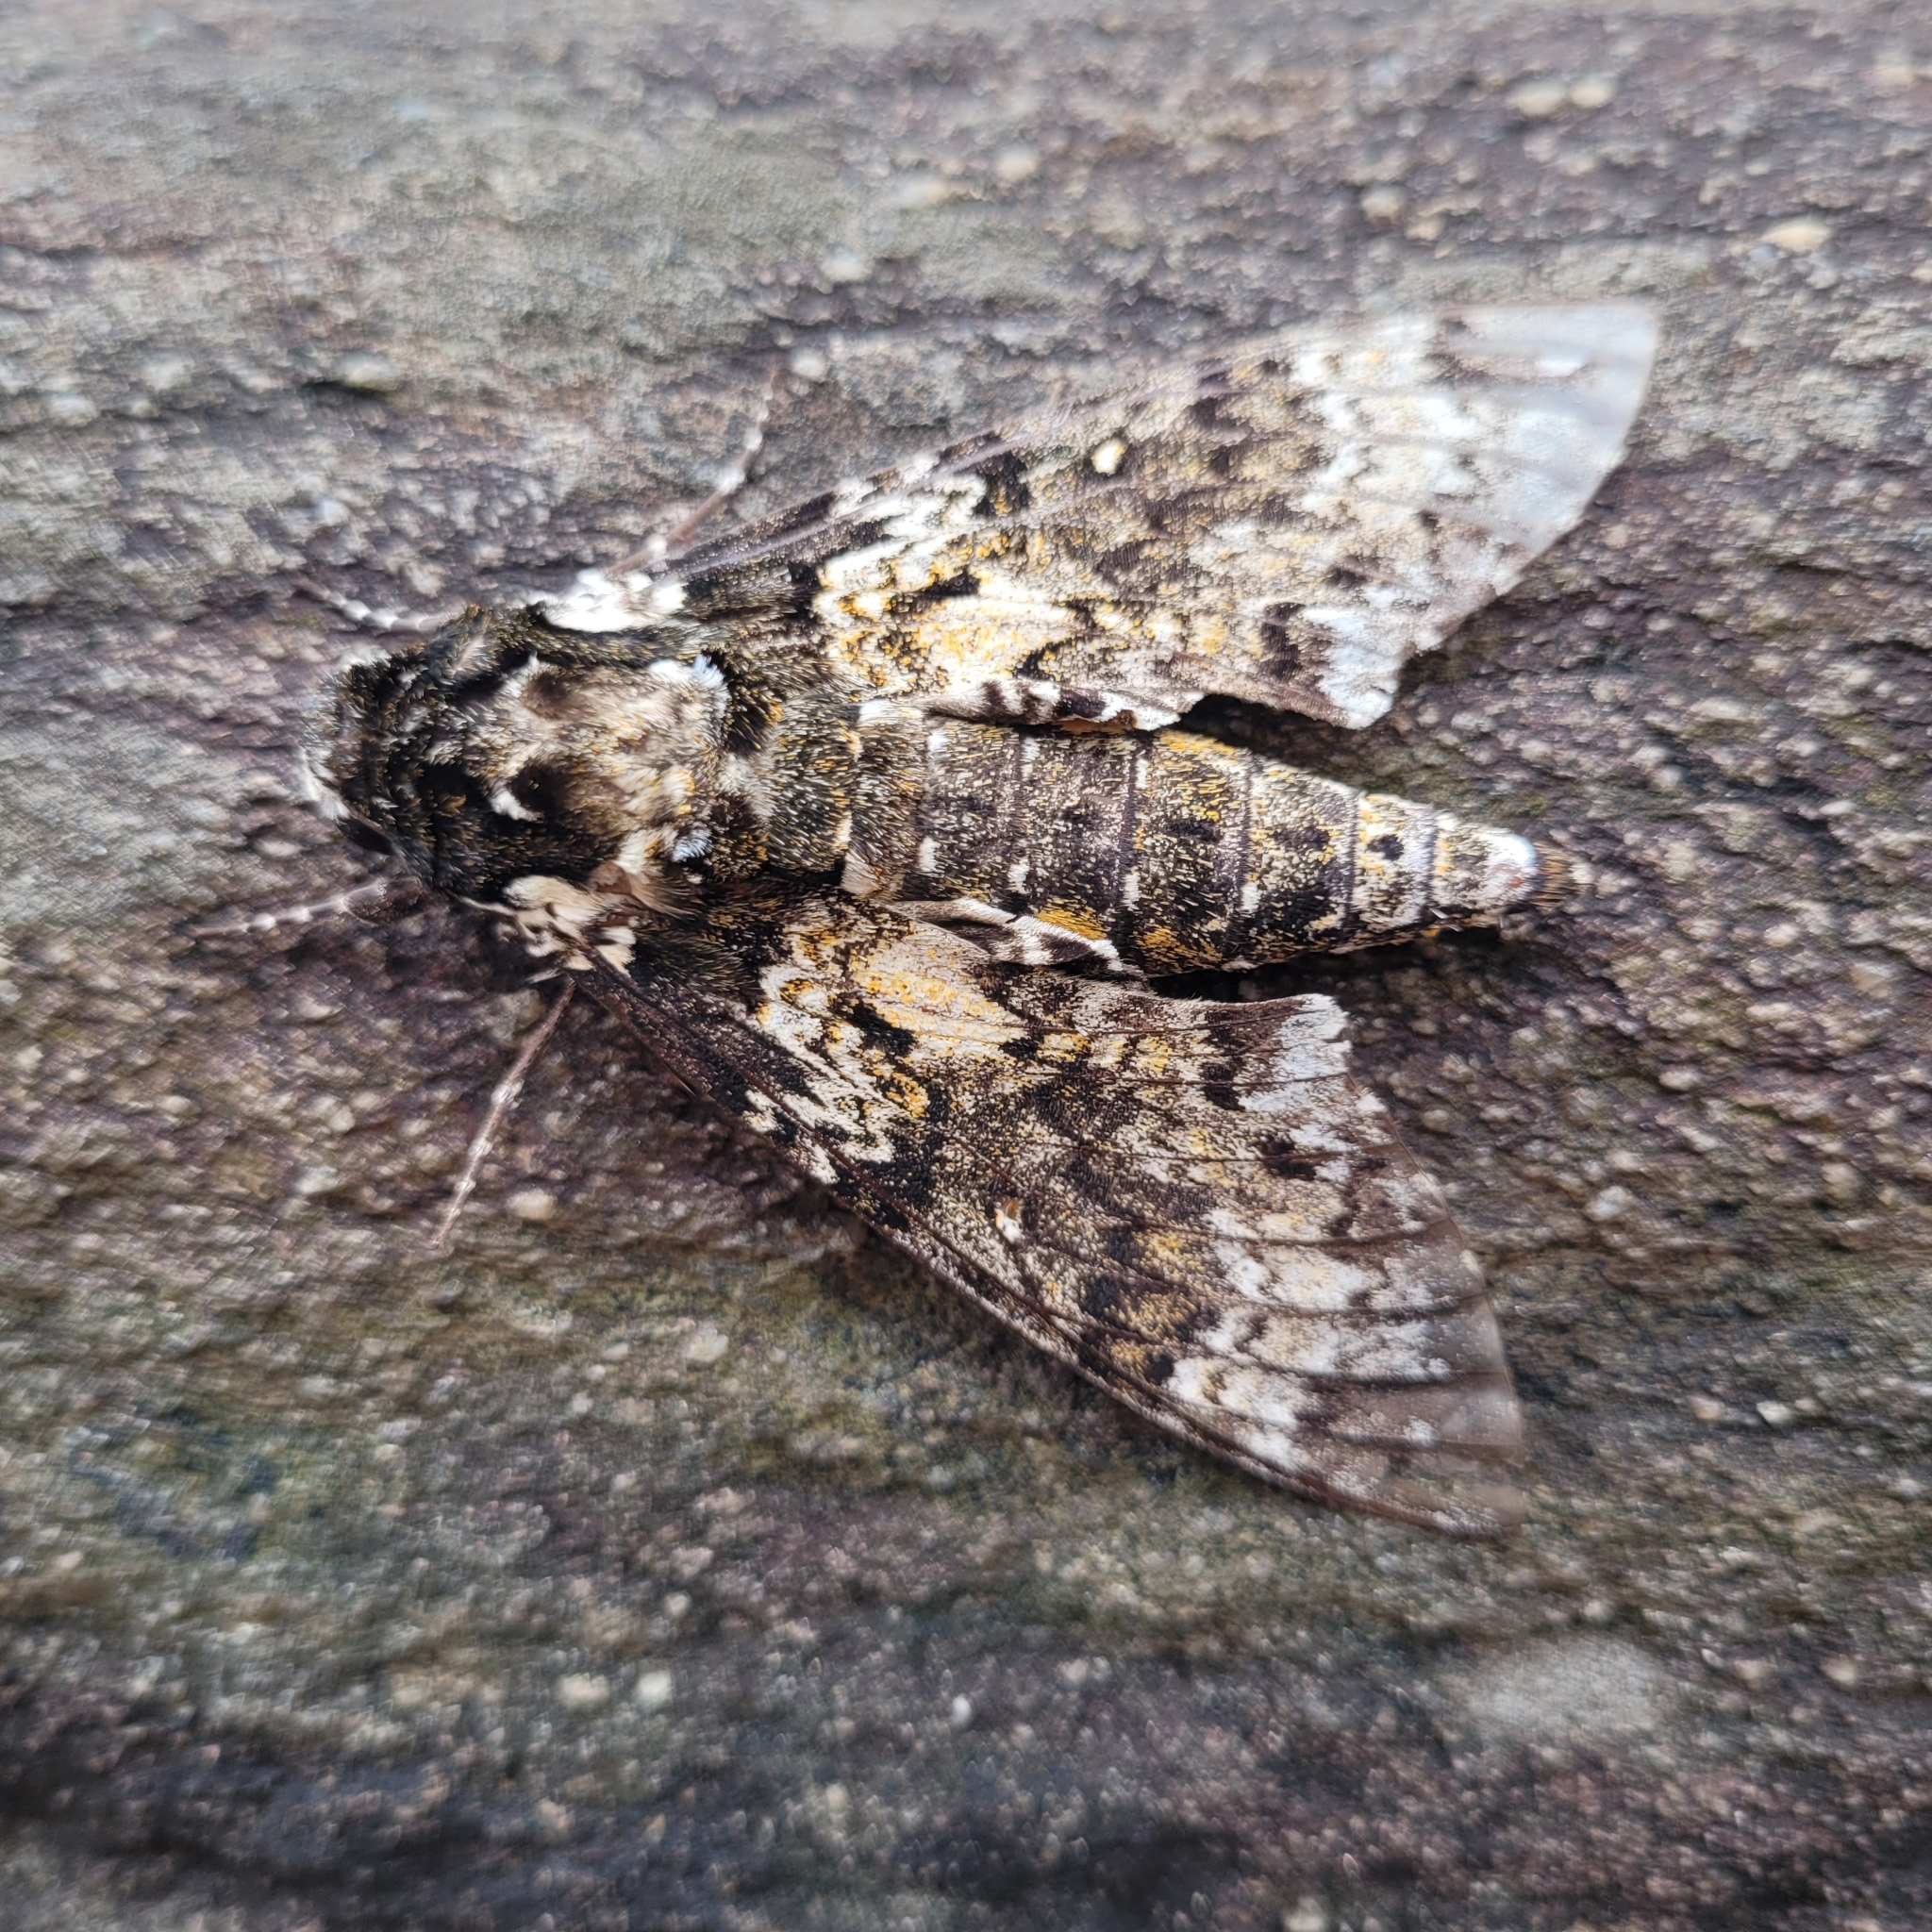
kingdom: Animalia
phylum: Arthropoda
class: Insecta
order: Lepidoptera
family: Sphingidae
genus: Manduca
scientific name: Manduca rustica
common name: Rustic sphinx
